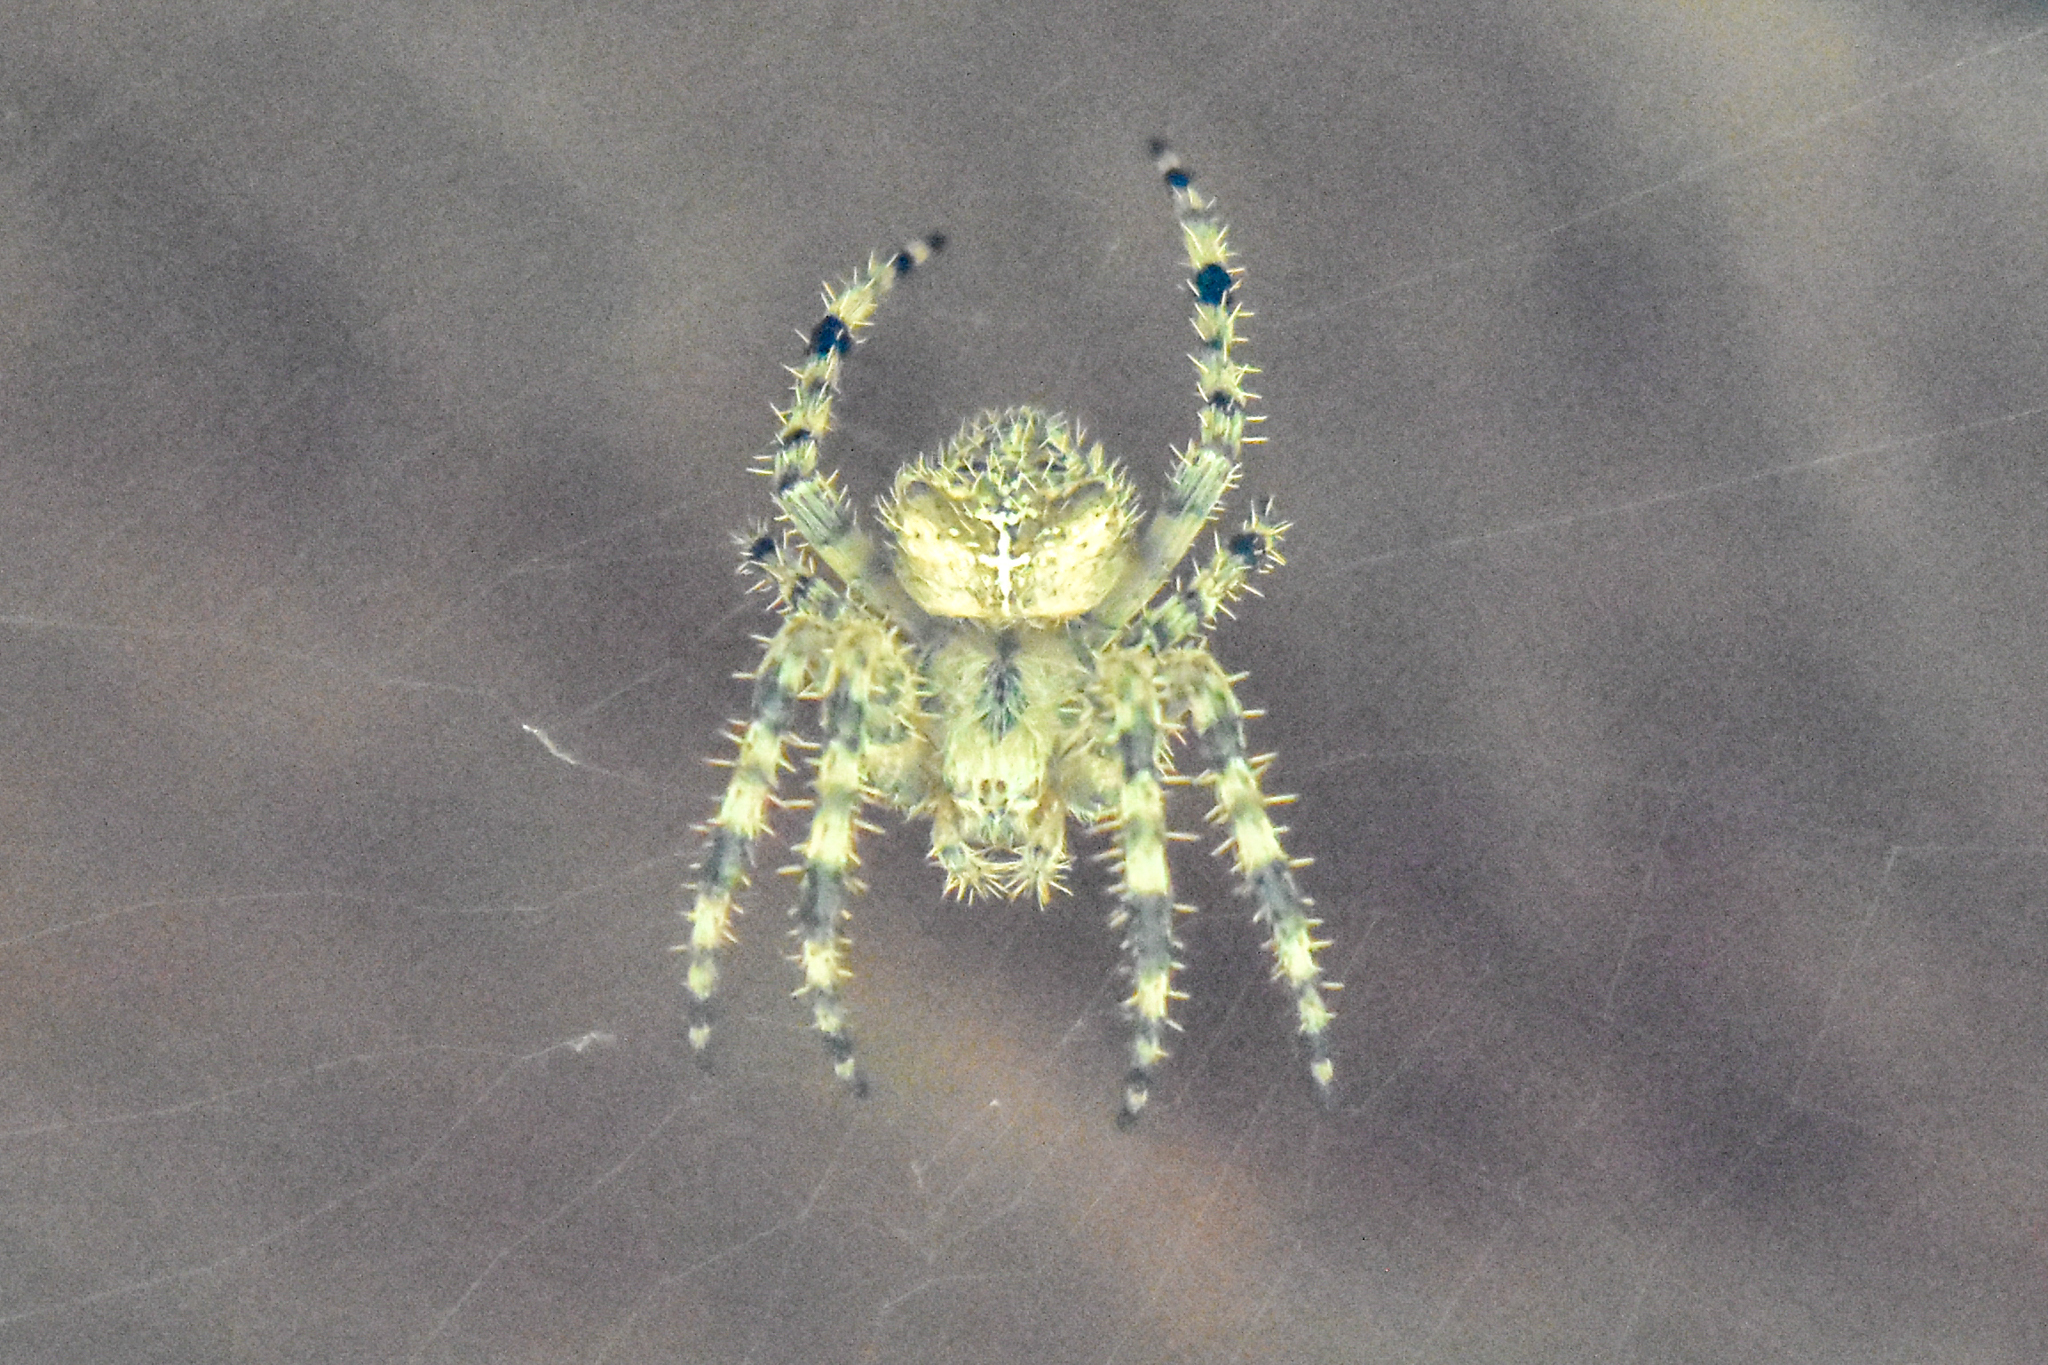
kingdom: Animalia
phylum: Arthropoda
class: Arachnida
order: Araneae
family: Araneidae
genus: Araneus
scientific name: Araneus gemmoides
